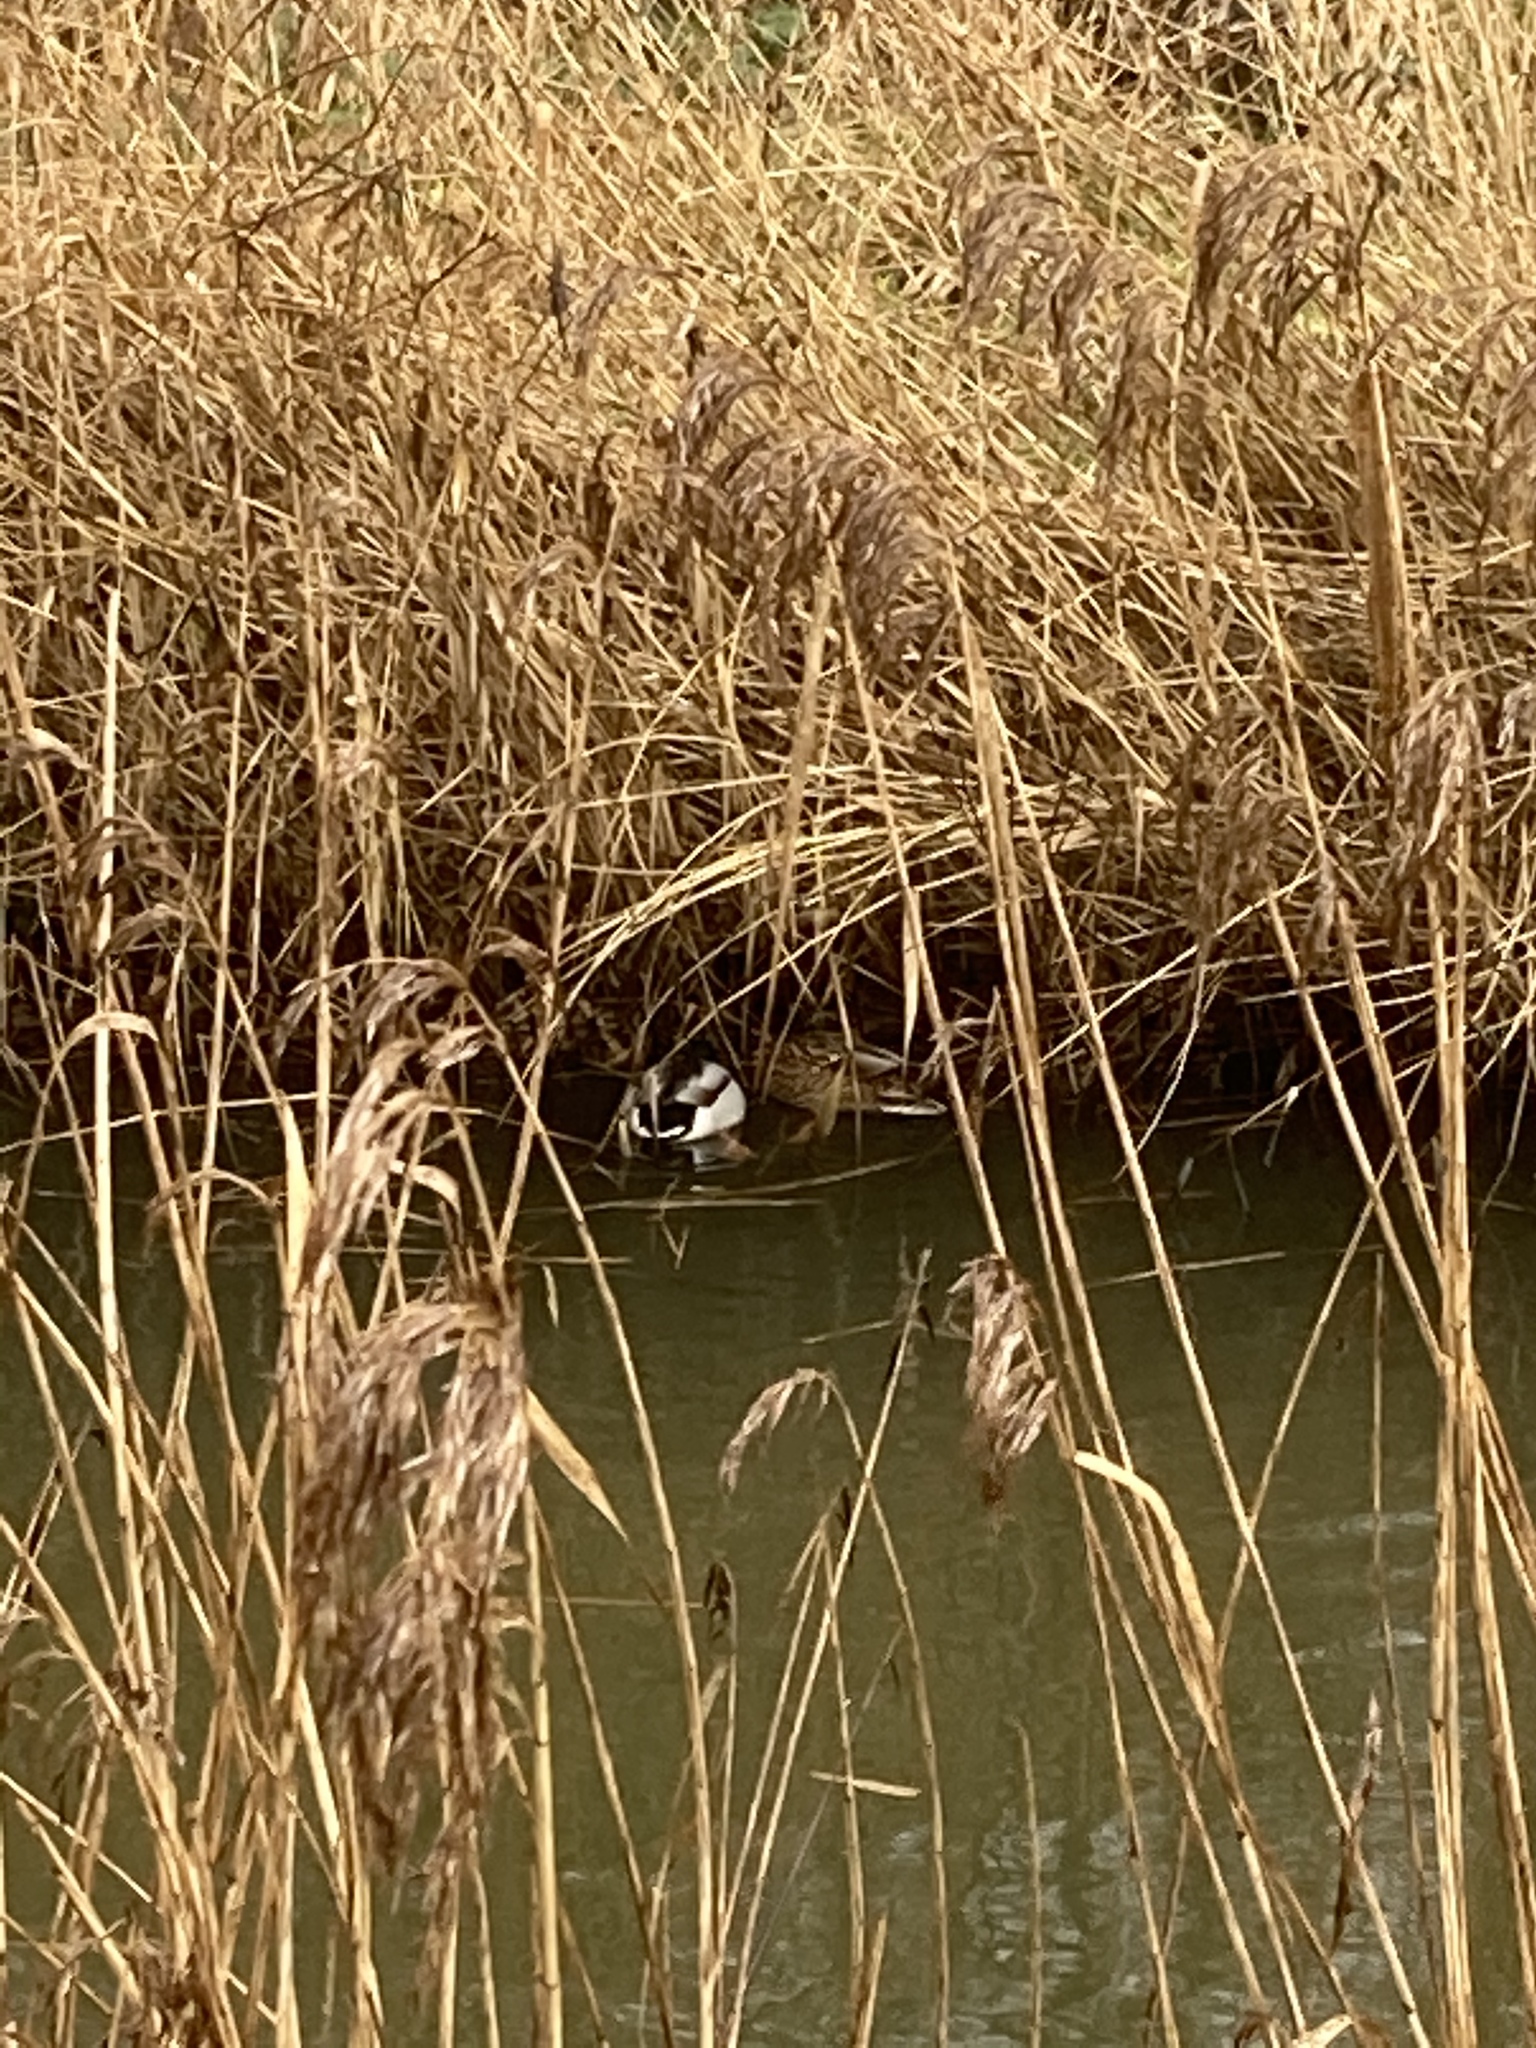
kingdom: Animalia
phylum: Chordata
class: Aves
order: Anseriformes
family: Anatidae
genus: Anas
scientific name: Anas platyrhynchos
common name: Mallard
